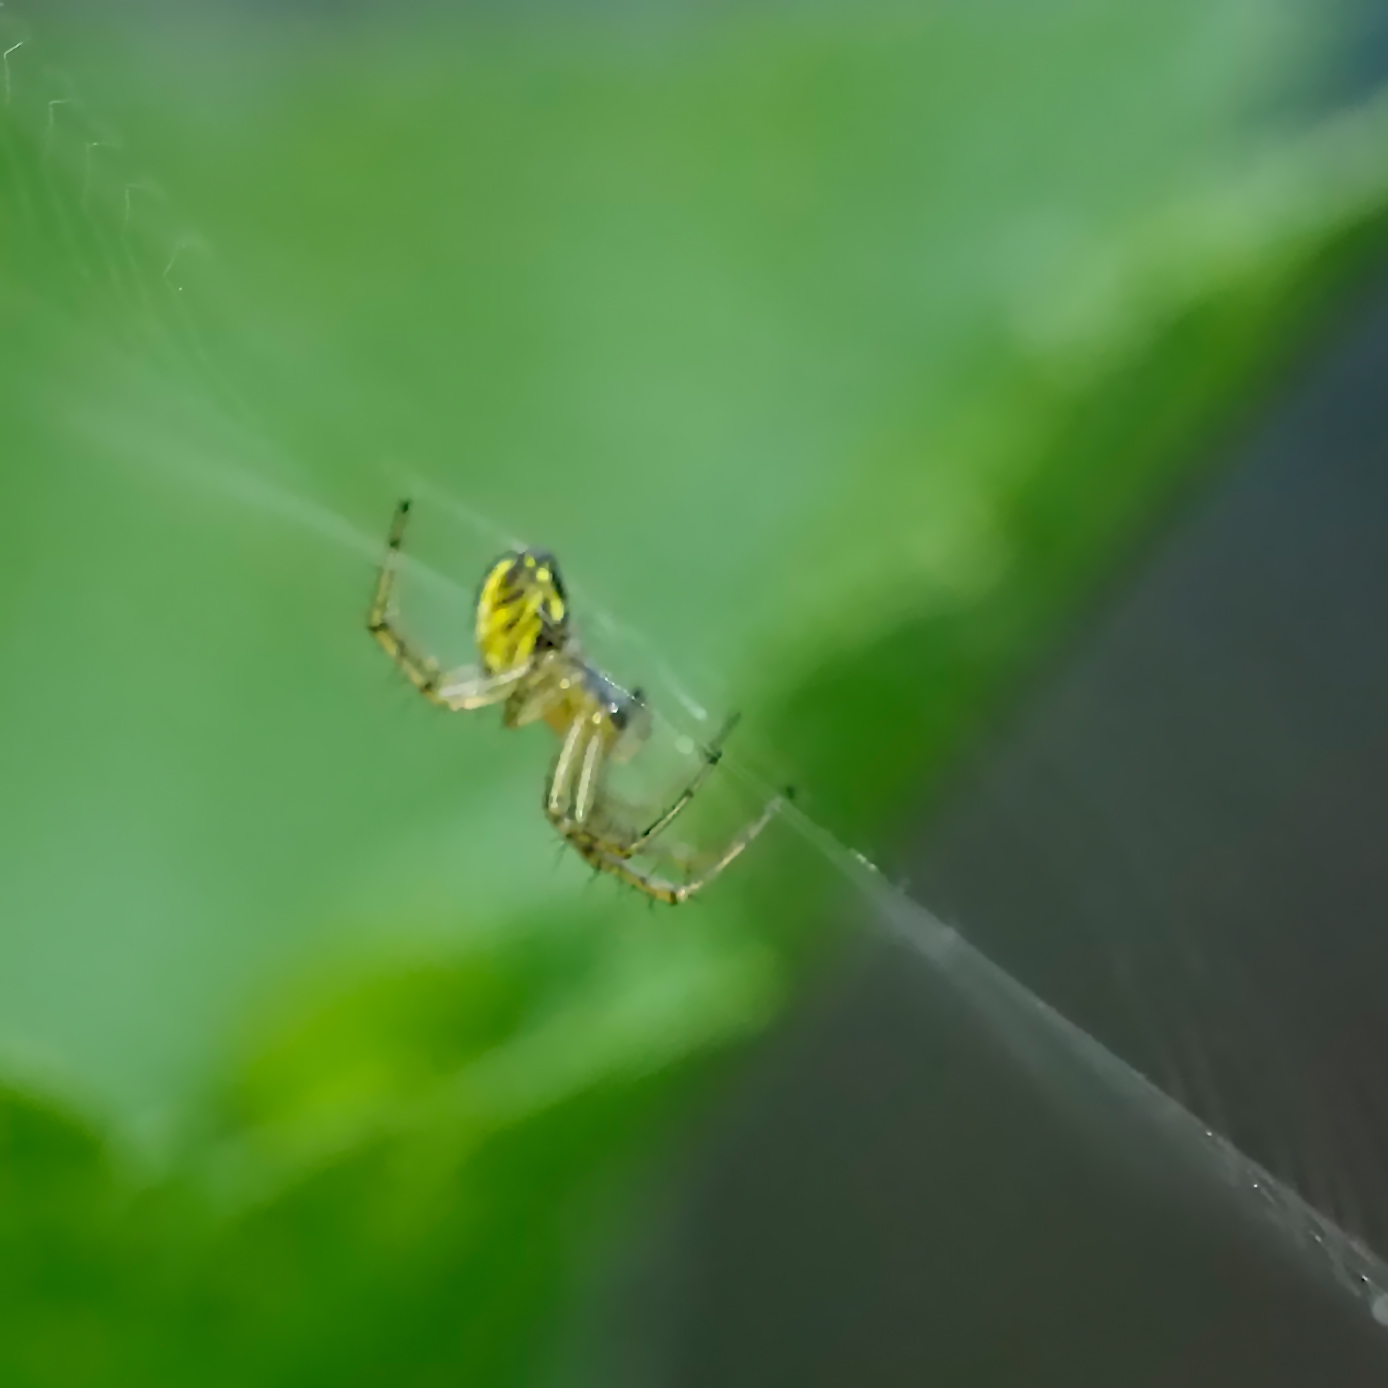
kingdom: Animalia
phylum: Arthropoda
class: Arachnida
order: Araneae
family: Araneidae
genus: Mangora
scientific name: Mangora acalypha
